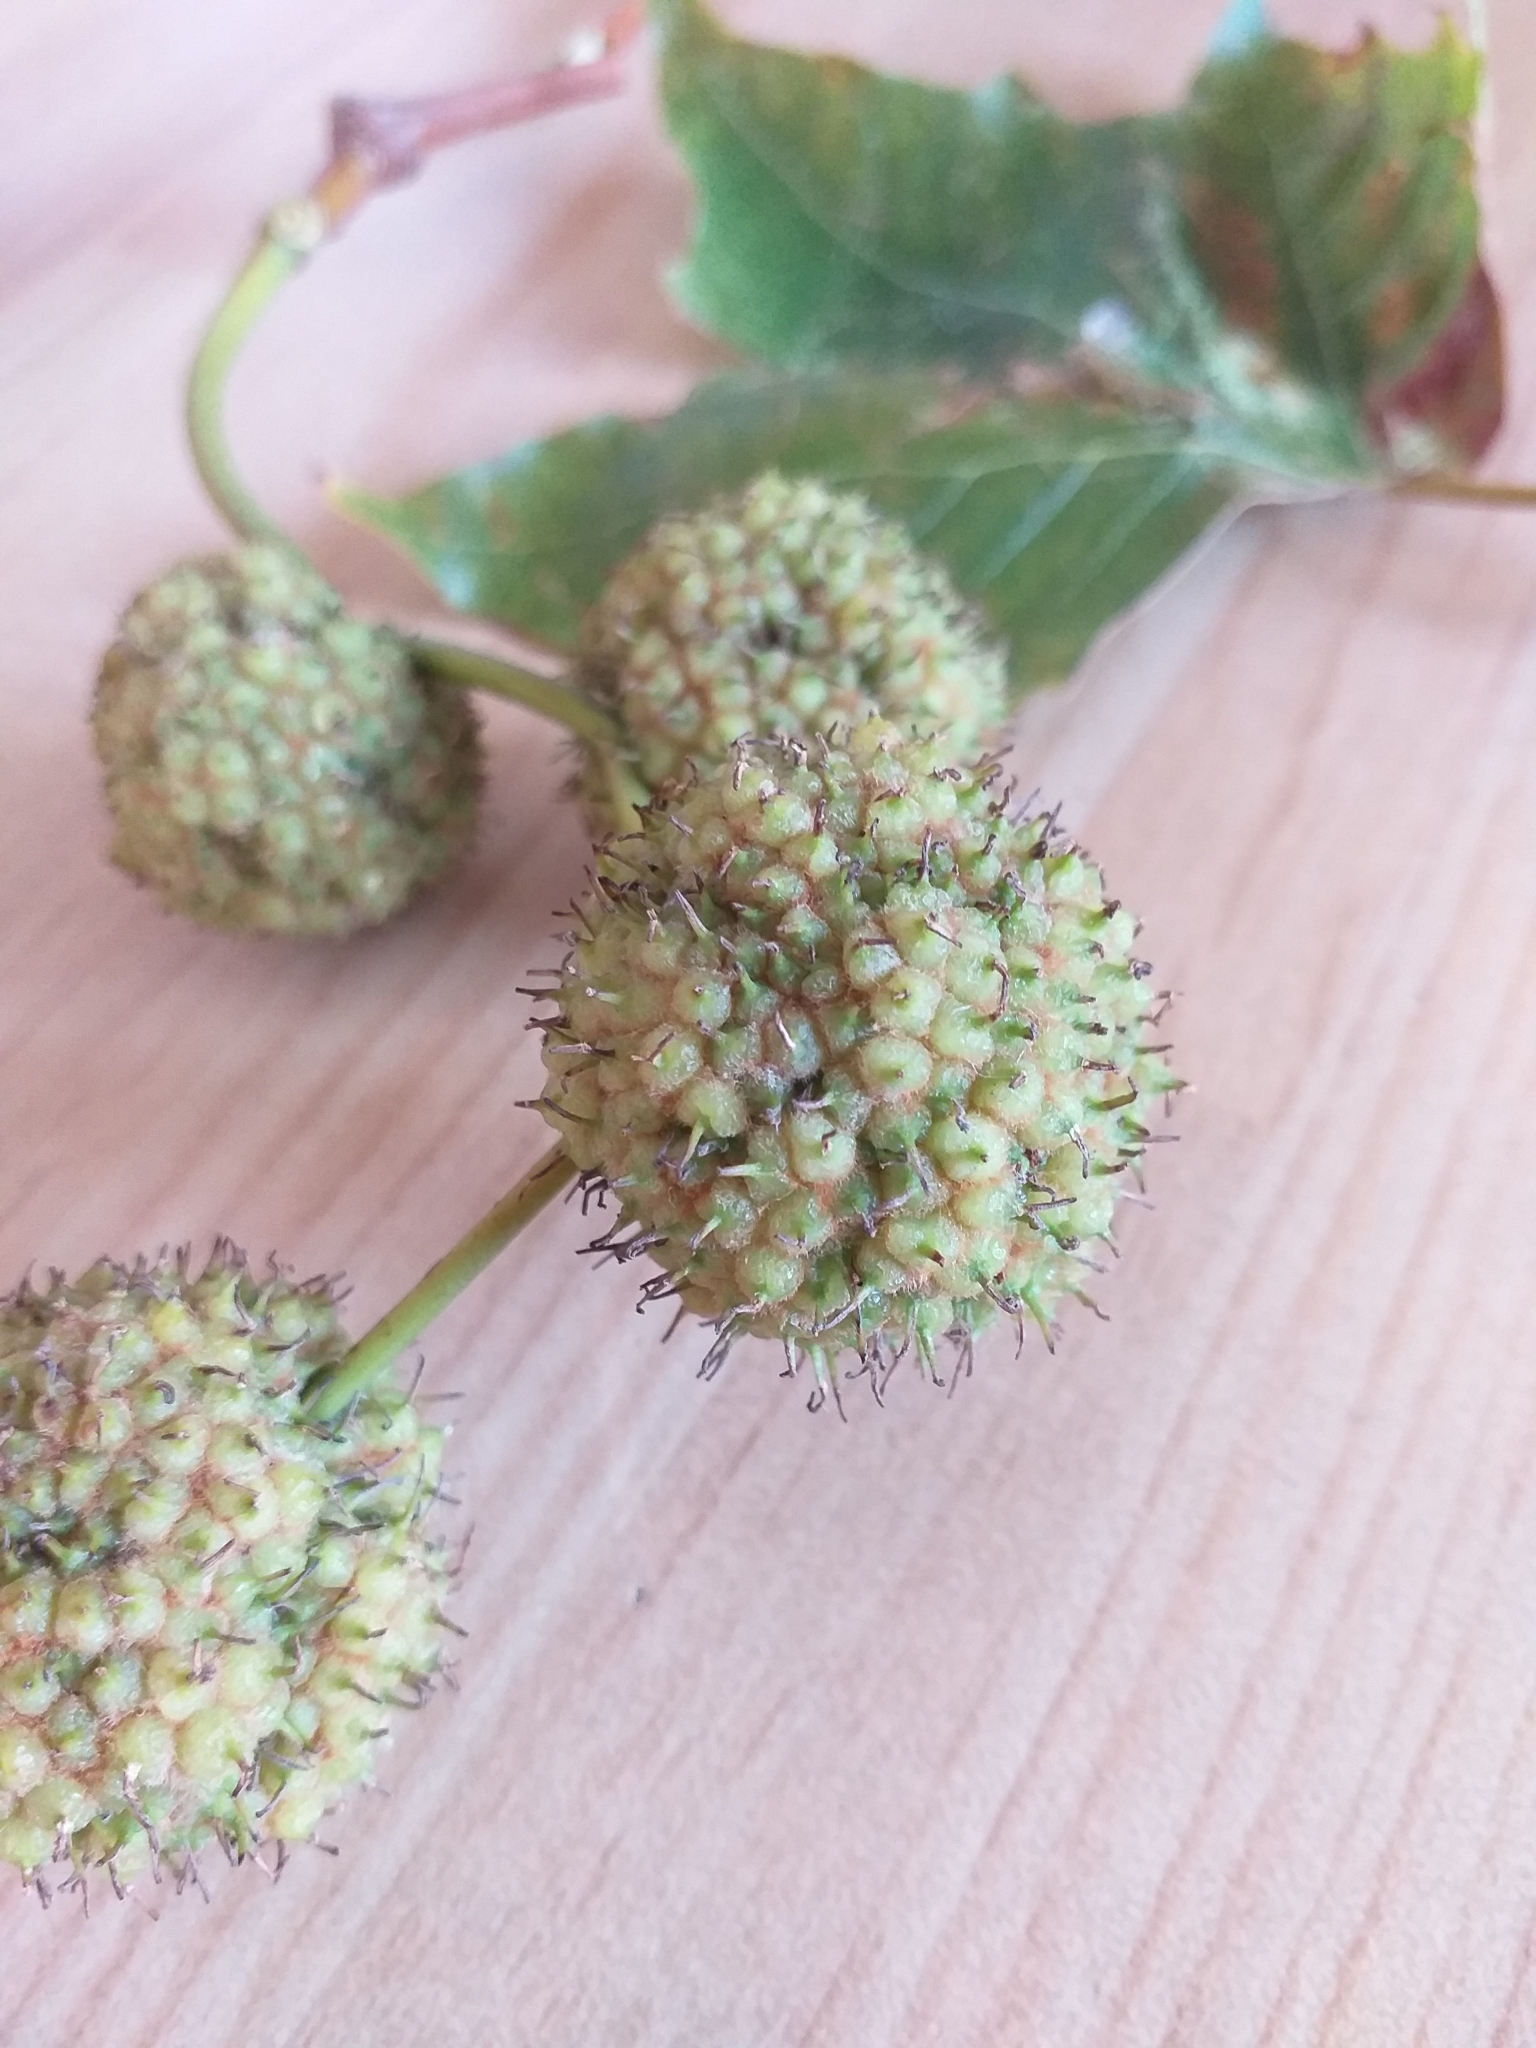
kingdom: Plantae
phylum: Tracheophyta
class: Magnoliopsida
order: Proteales
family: Platanaceae
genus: Platanus
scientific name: Platanus hispanica
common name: London plane
